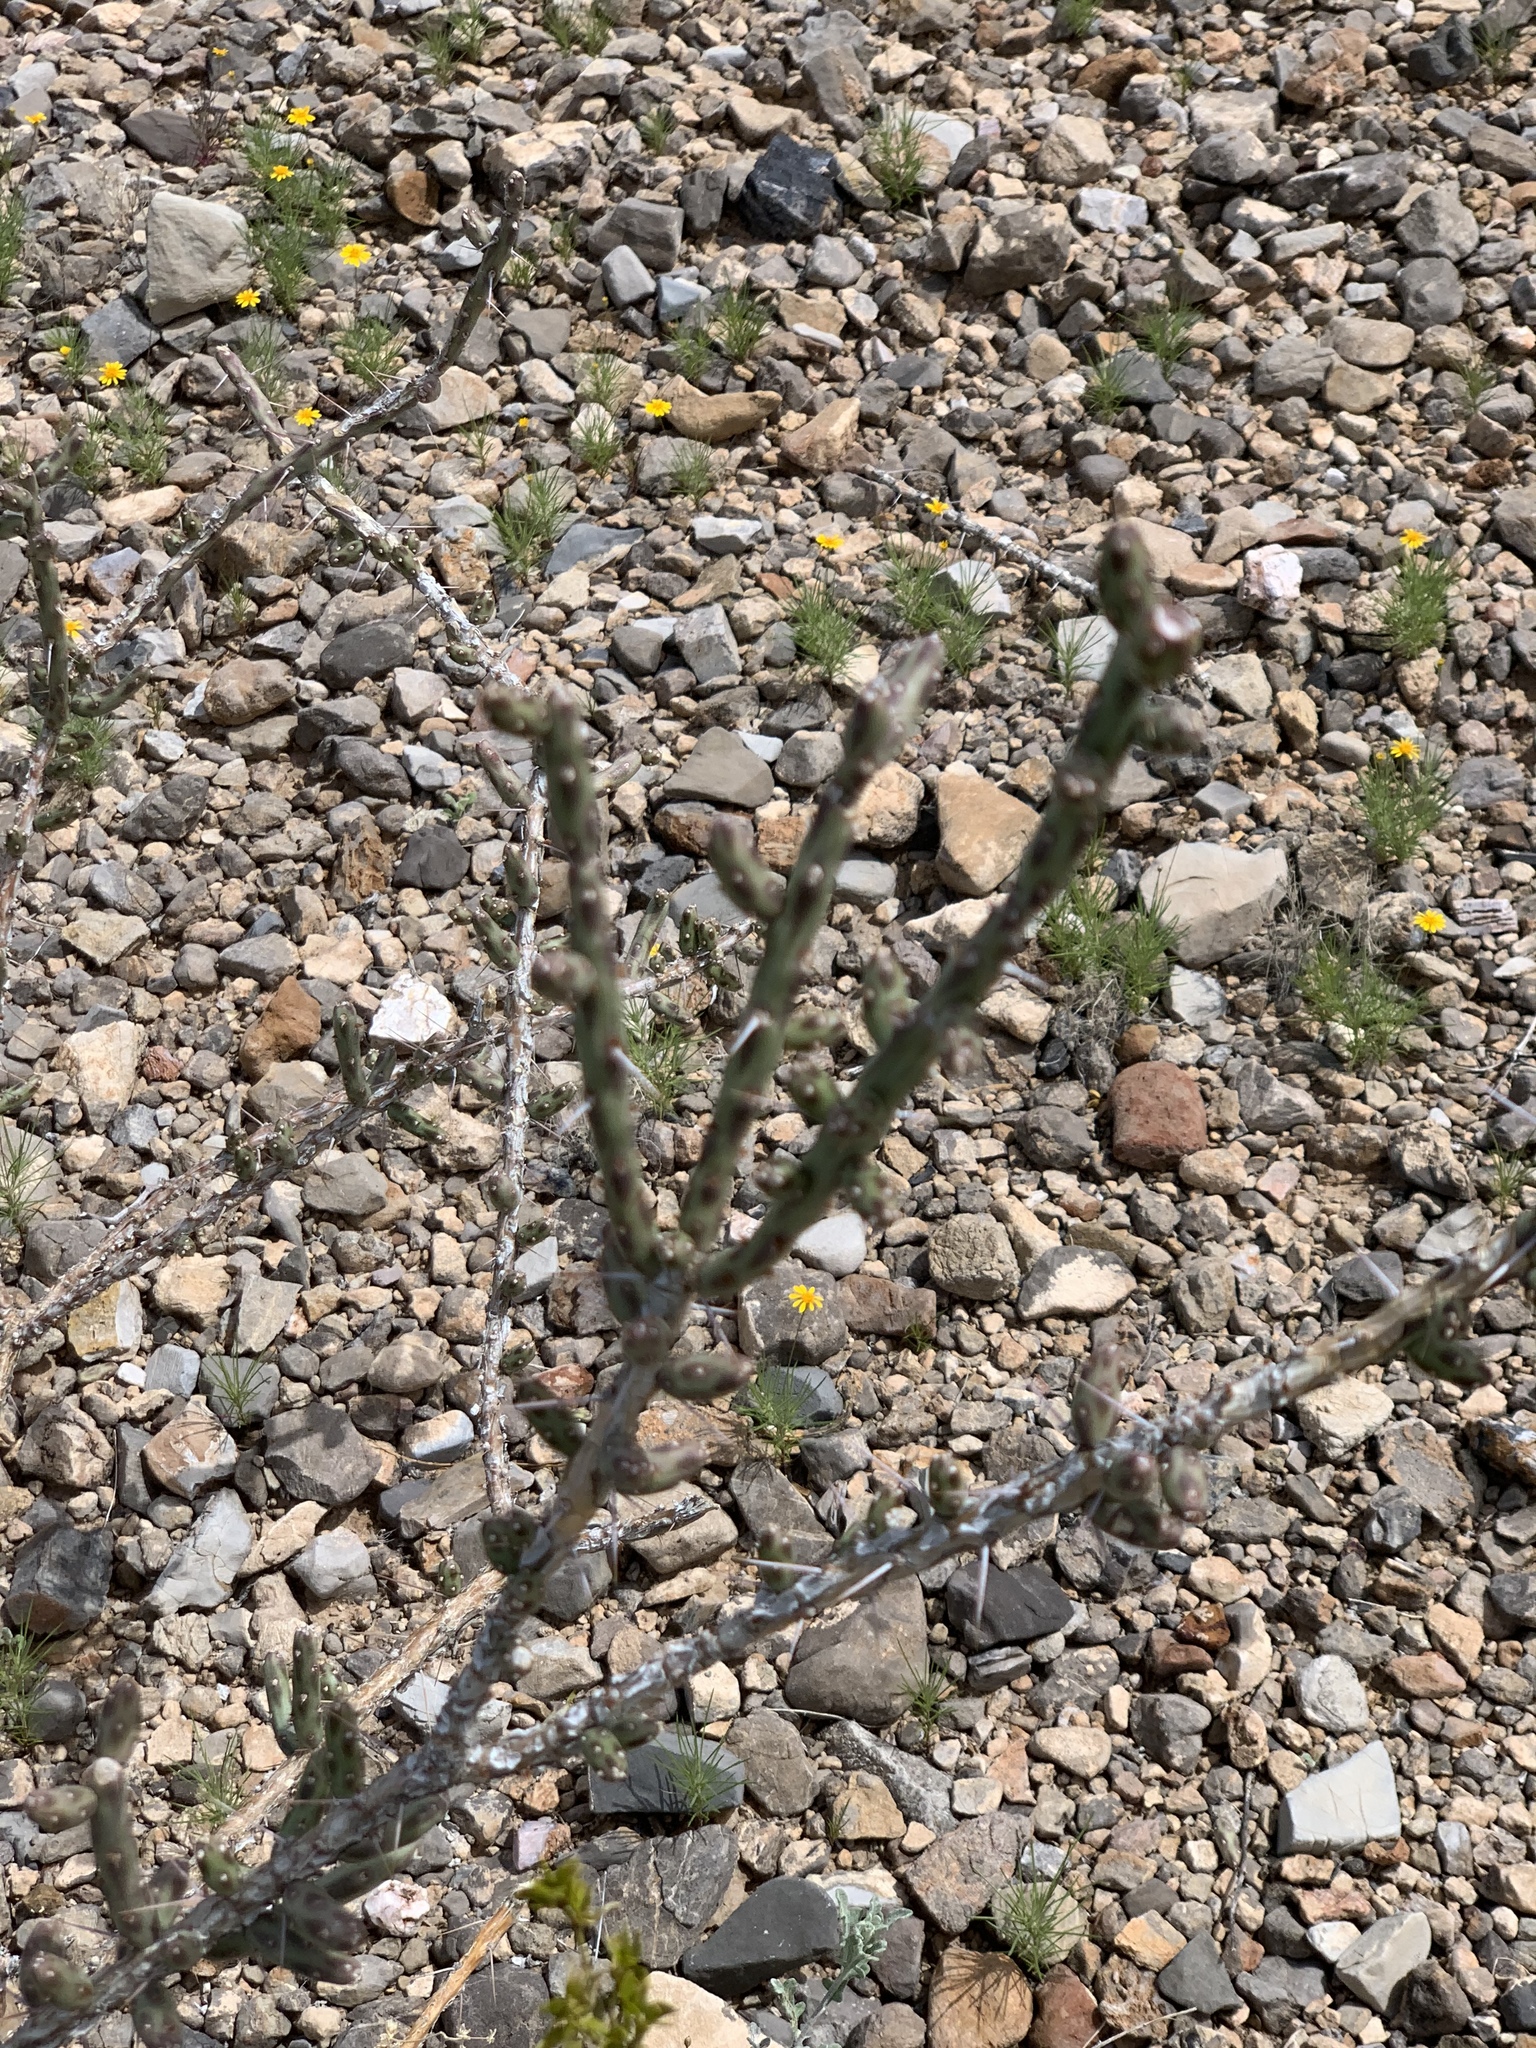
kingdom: Plantae
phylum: Tracheophyta
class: Magnoliopsida
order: Caryophyllales
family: Cactaceae
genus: Cylindropuntia
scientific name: Cylindropuntia leptocaulis
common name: Christmas cactus
